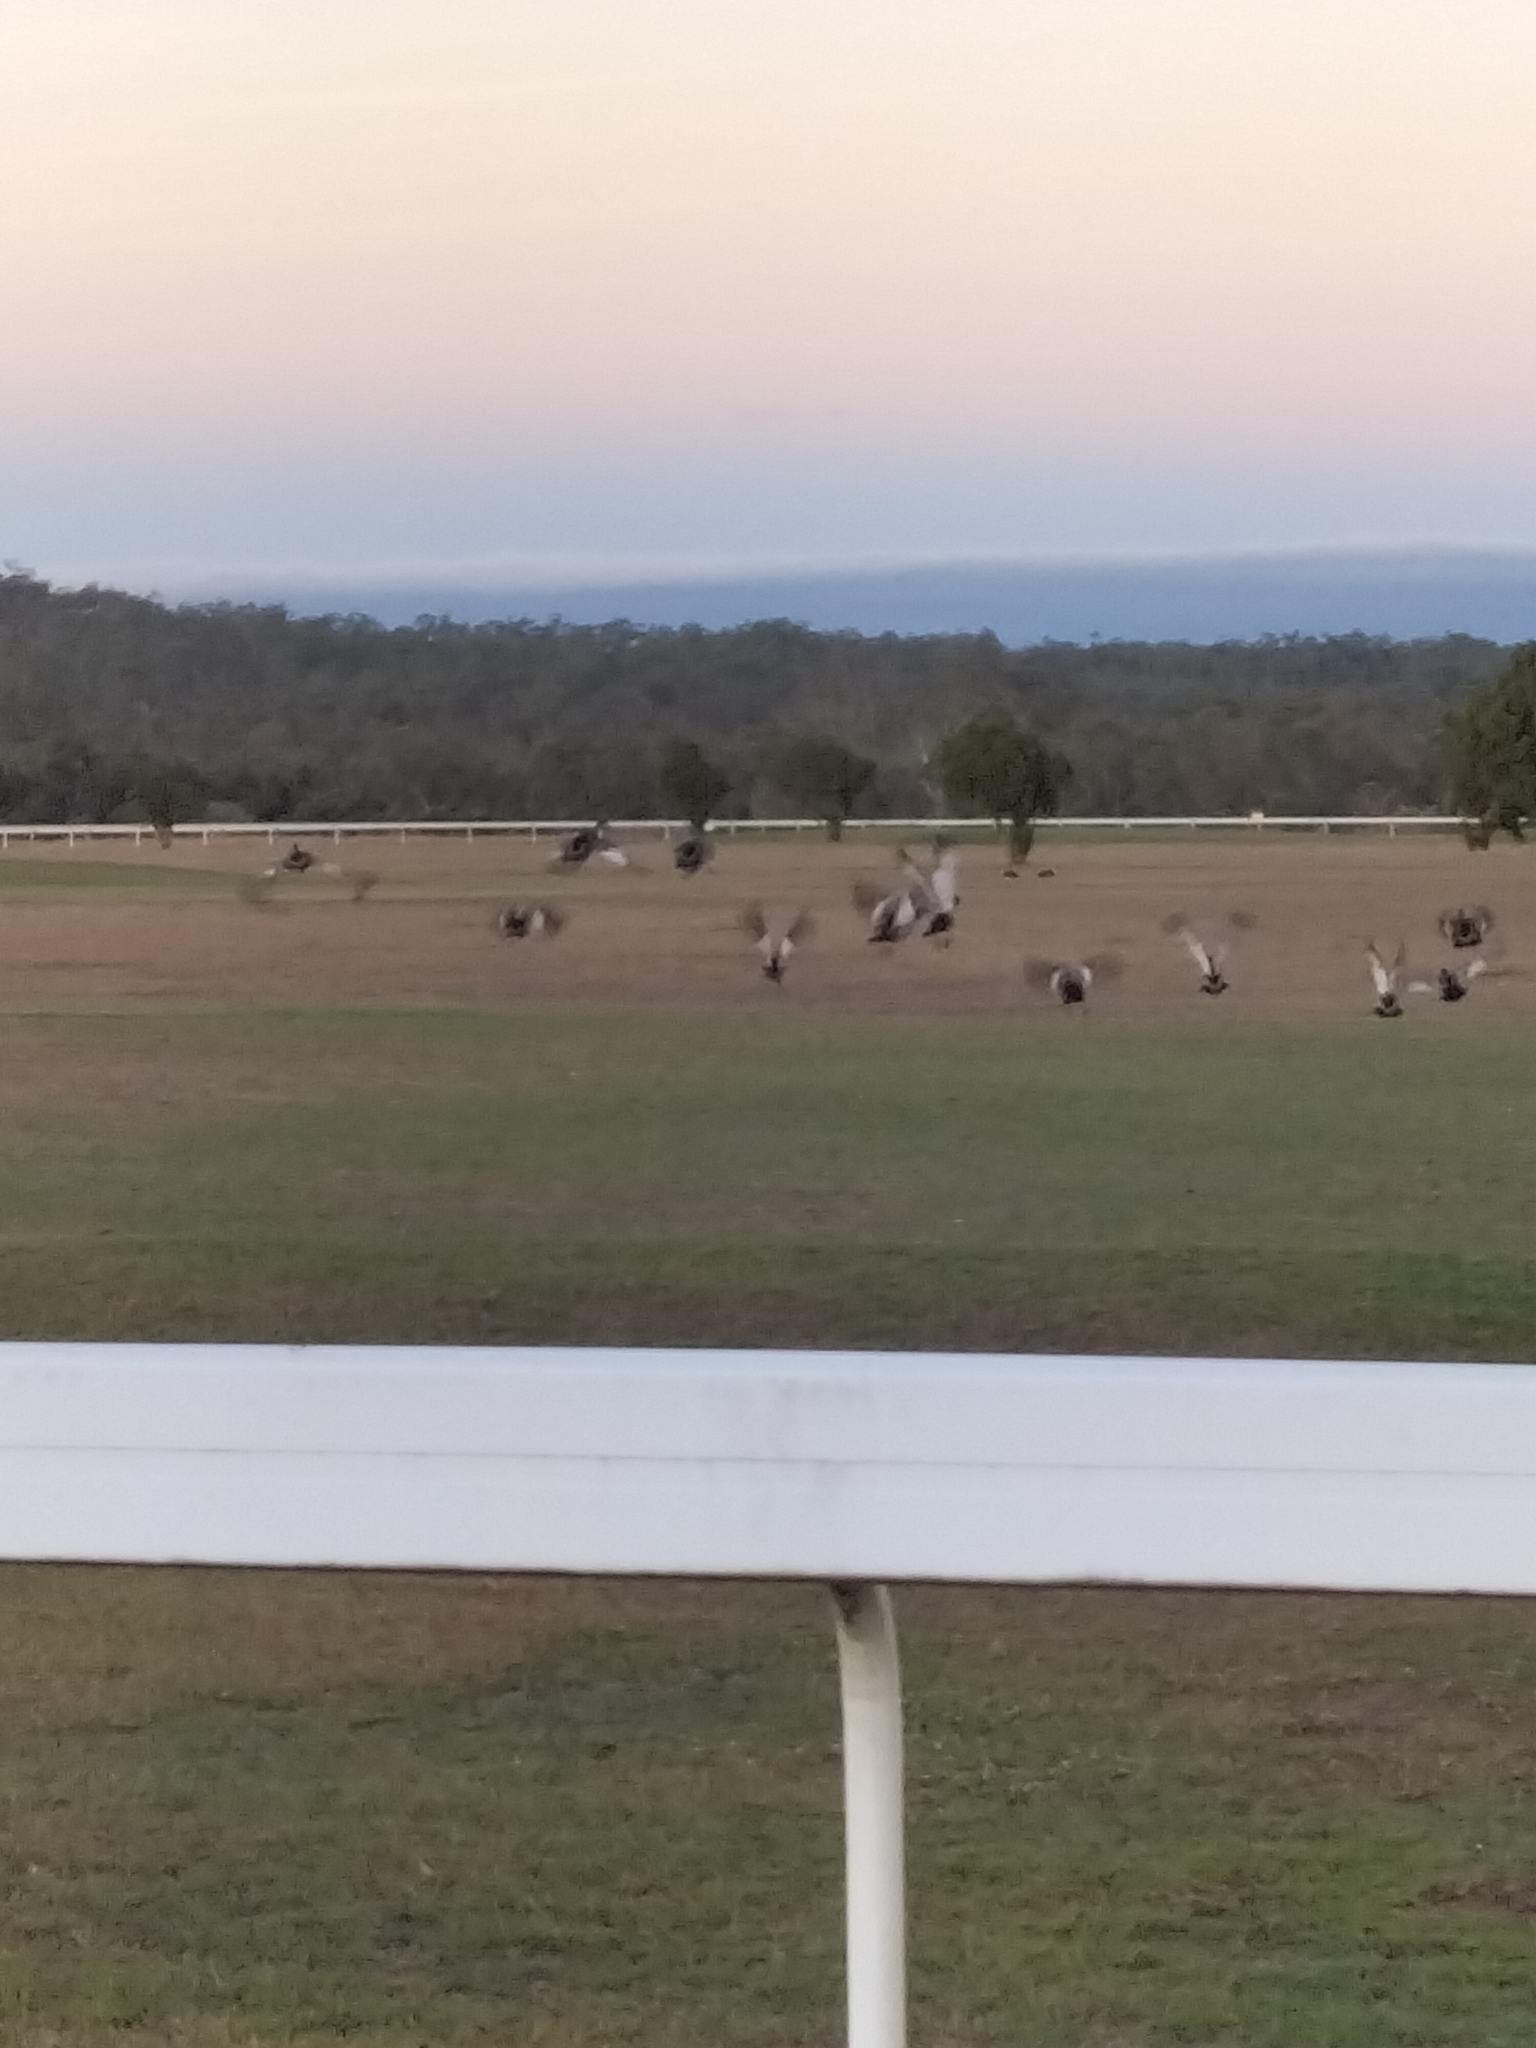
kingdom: Animalia
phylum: Chordata
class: Aves
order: Anseriformes
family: Anatidae
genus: Chenonetta
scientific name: Chenonetta jubata
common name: Maned duck
